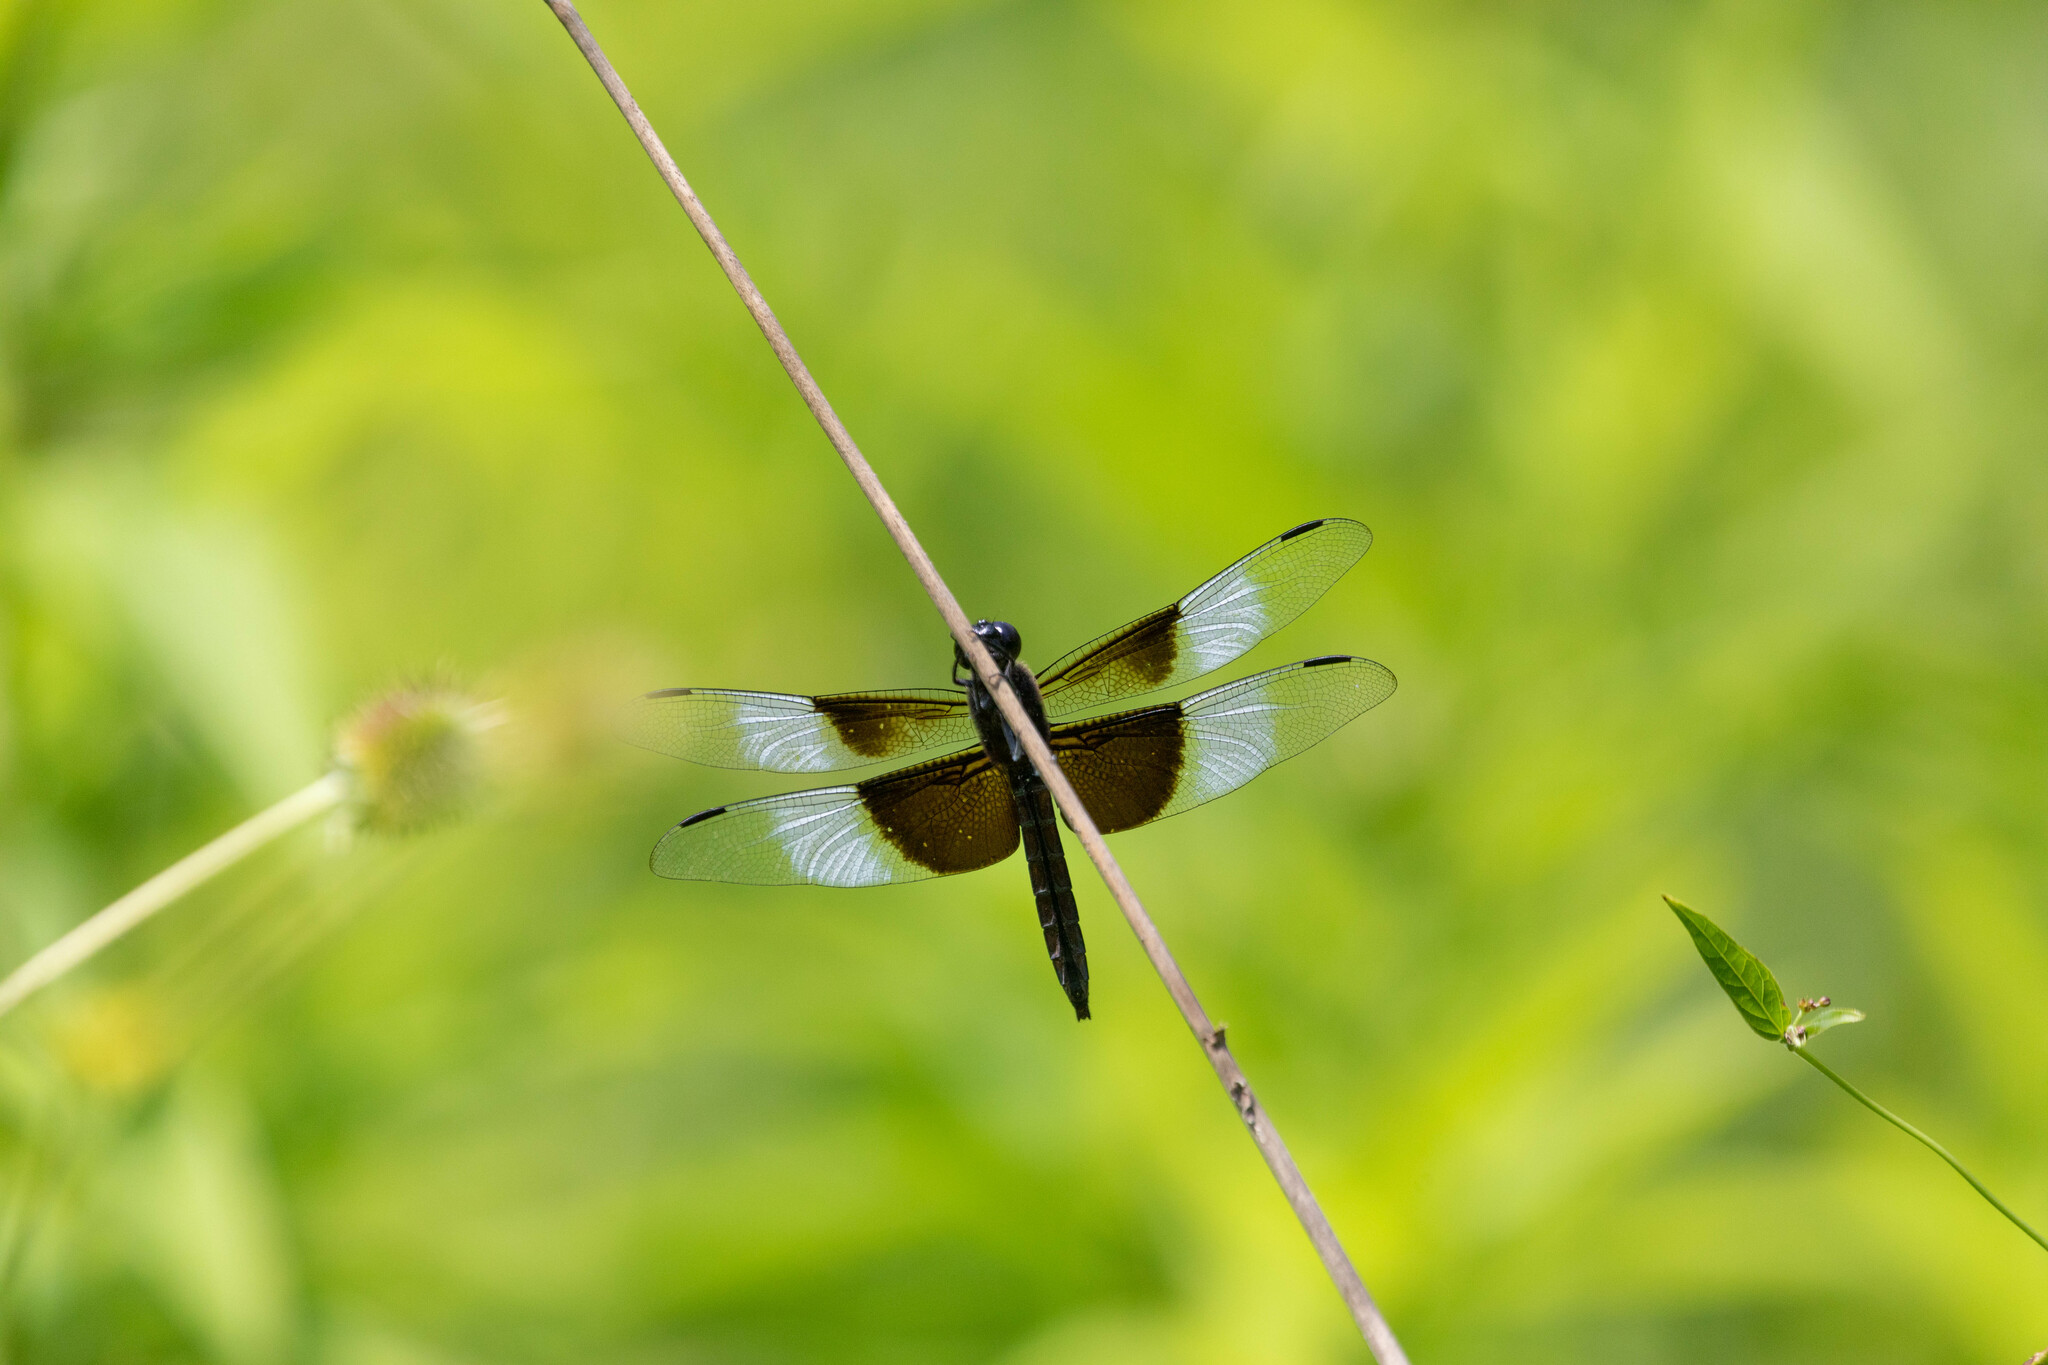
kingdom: Animalia
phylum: Arthropoda
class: Insecta
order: Odonata
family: Libellulidae
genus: Libellula
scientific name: Libellula luctuosa
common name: Widow skimmer
